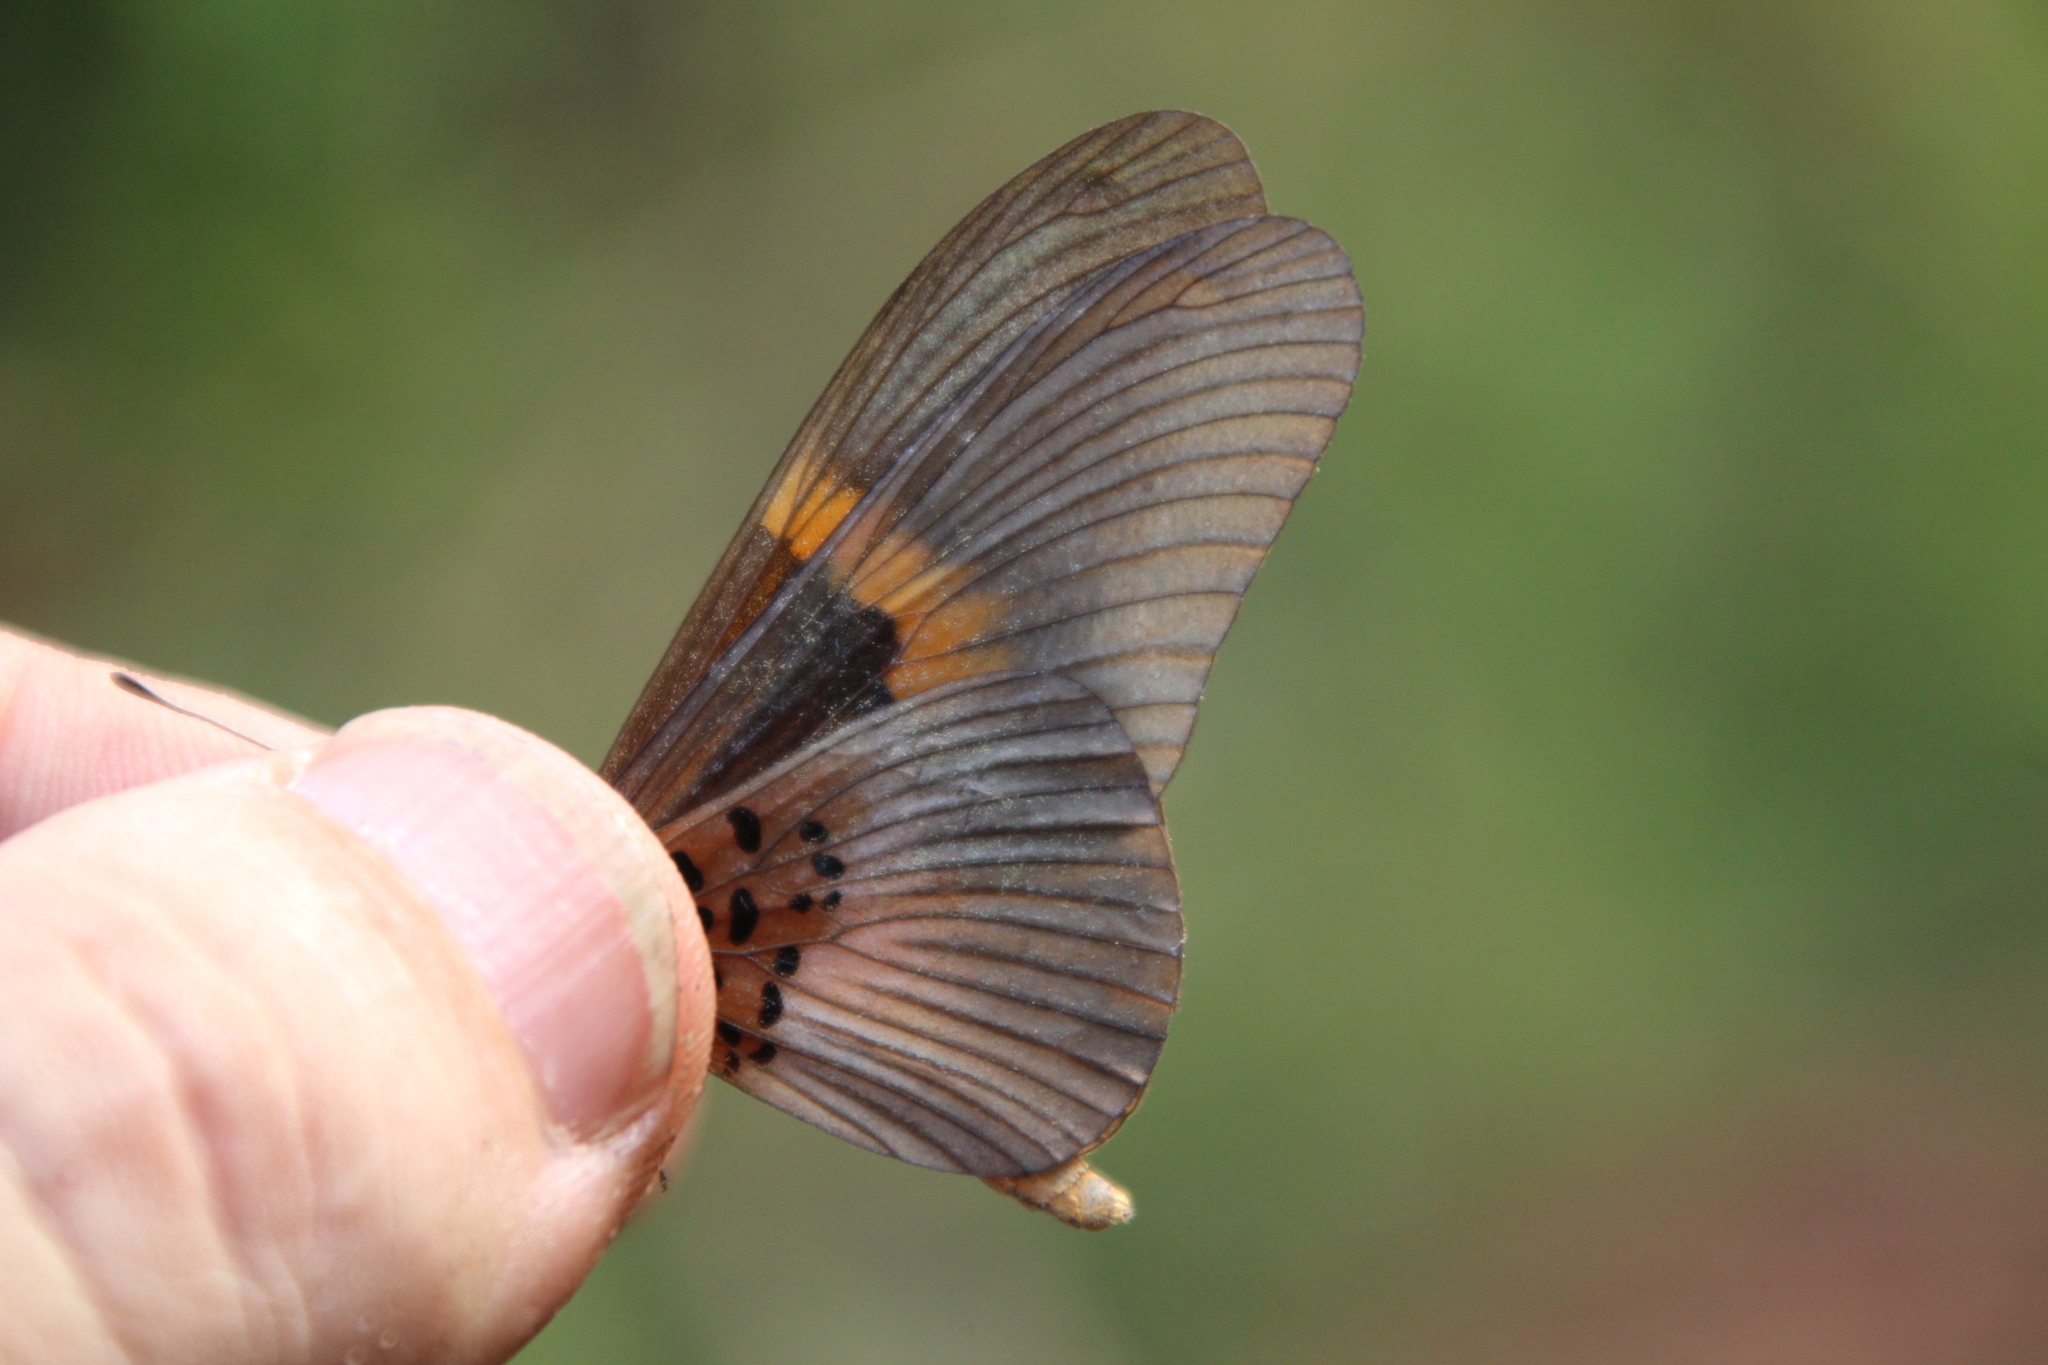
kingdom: Animalia
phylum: Arthropoda
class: Insecta
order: Lepidoptera
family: Nymphalidae
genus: Acraea
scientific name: Acraea
